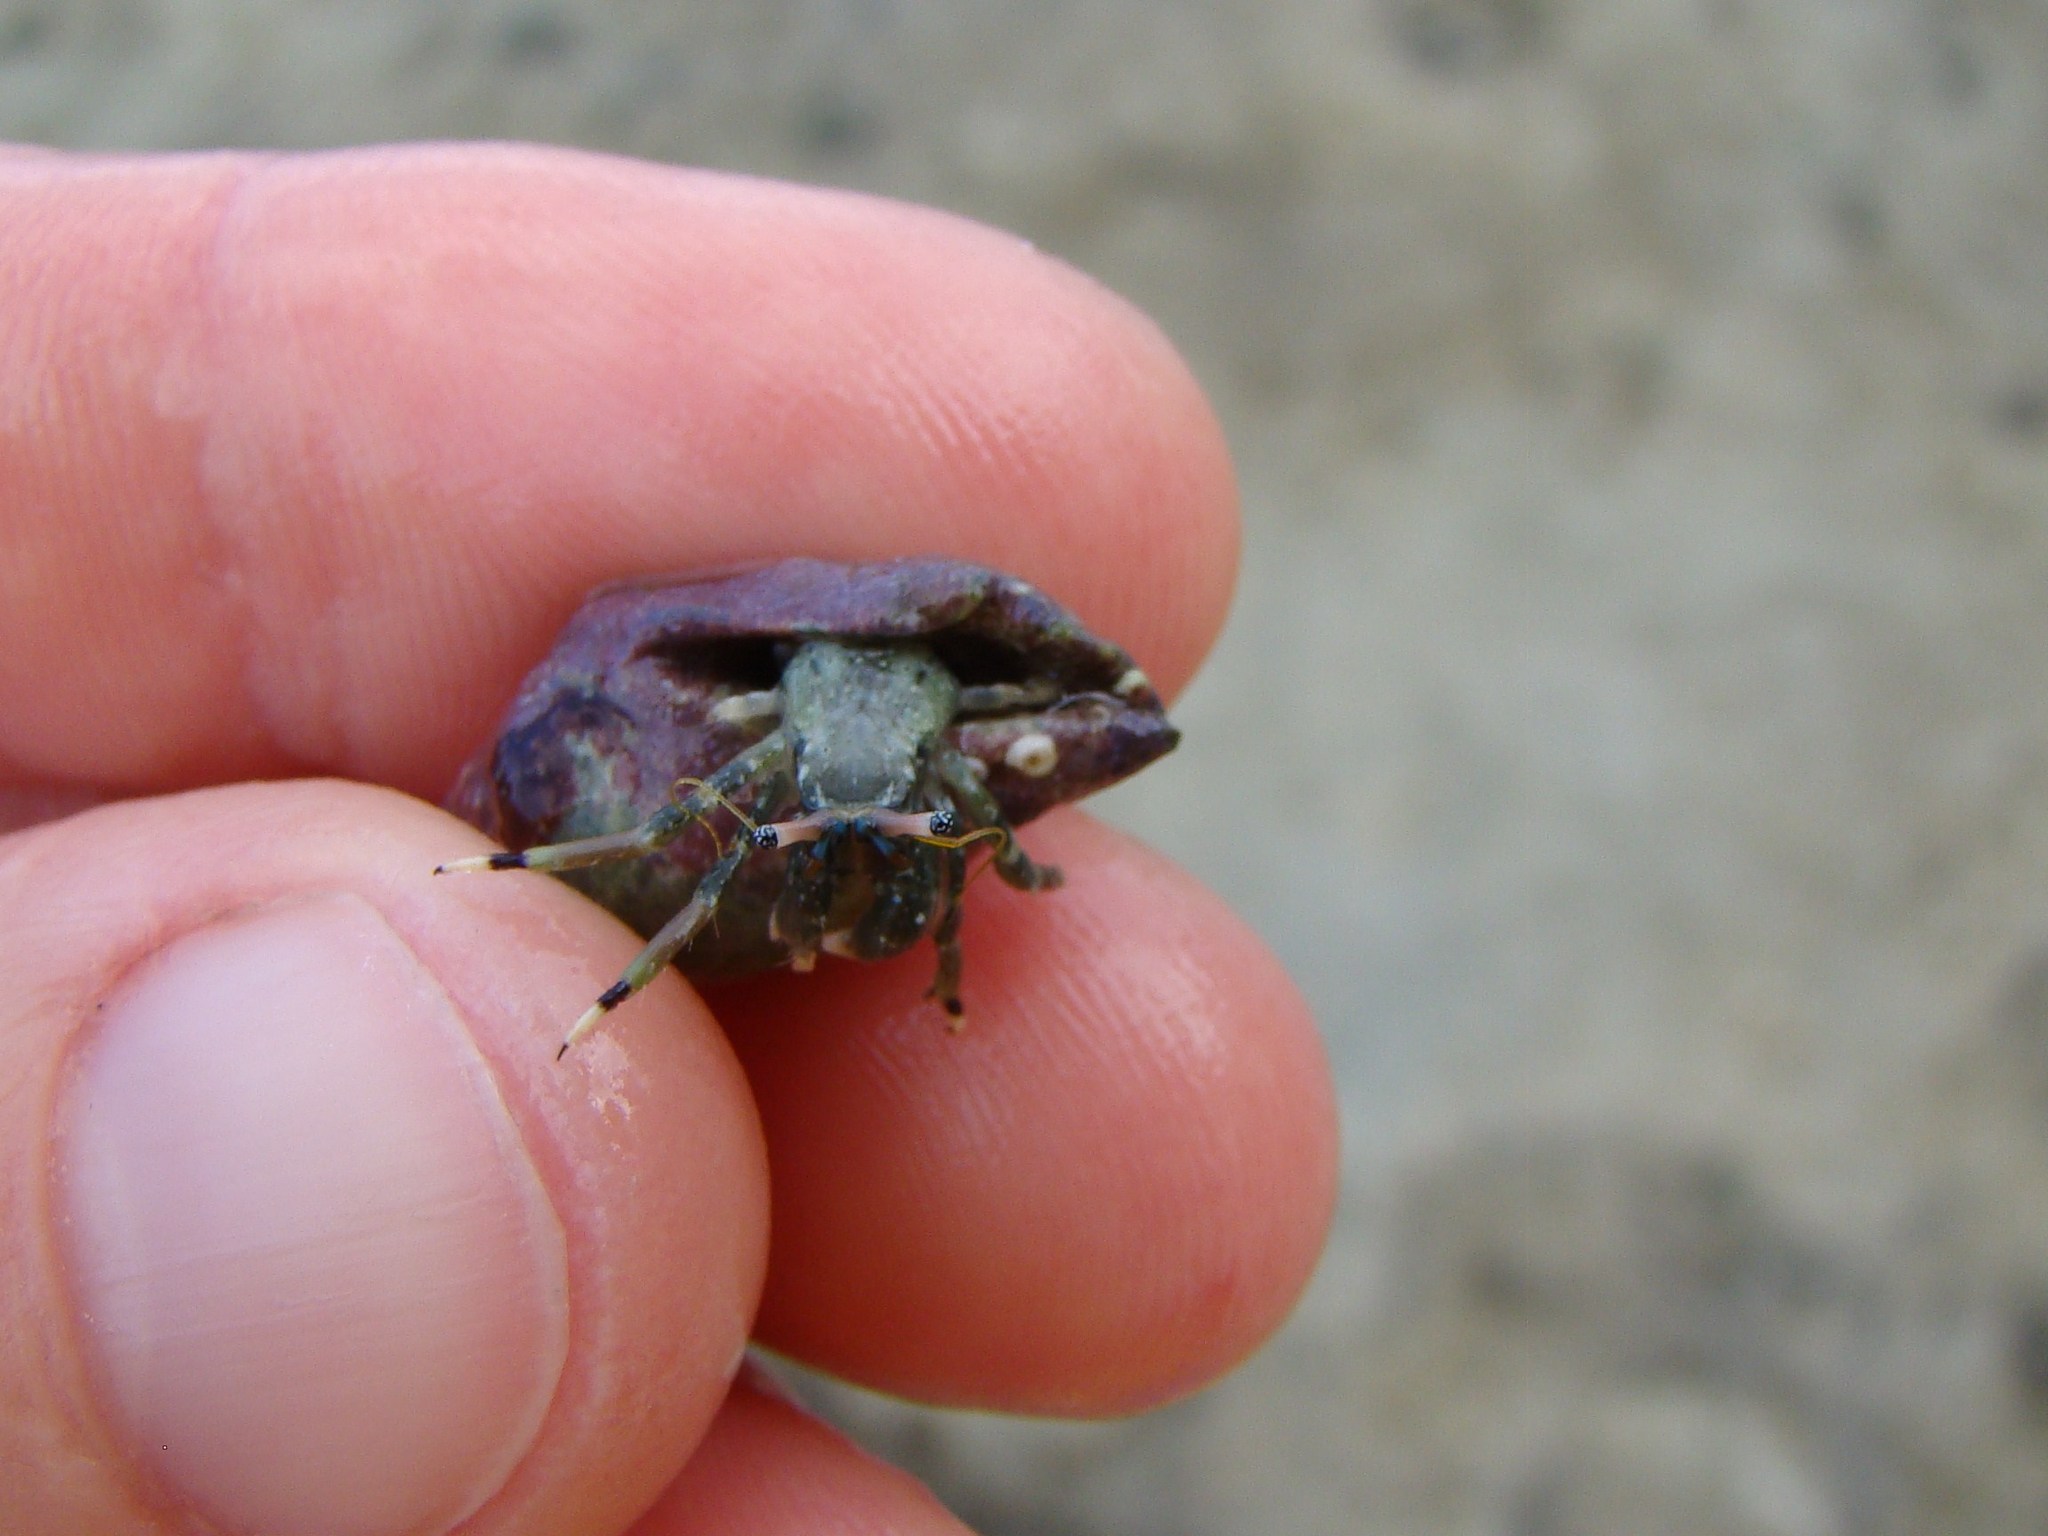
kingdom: Animalia
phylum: Arthropoda
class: Malacostraca
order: Decapoda
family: Diogenidae
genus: Calcinus
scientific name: Calcinus latens
